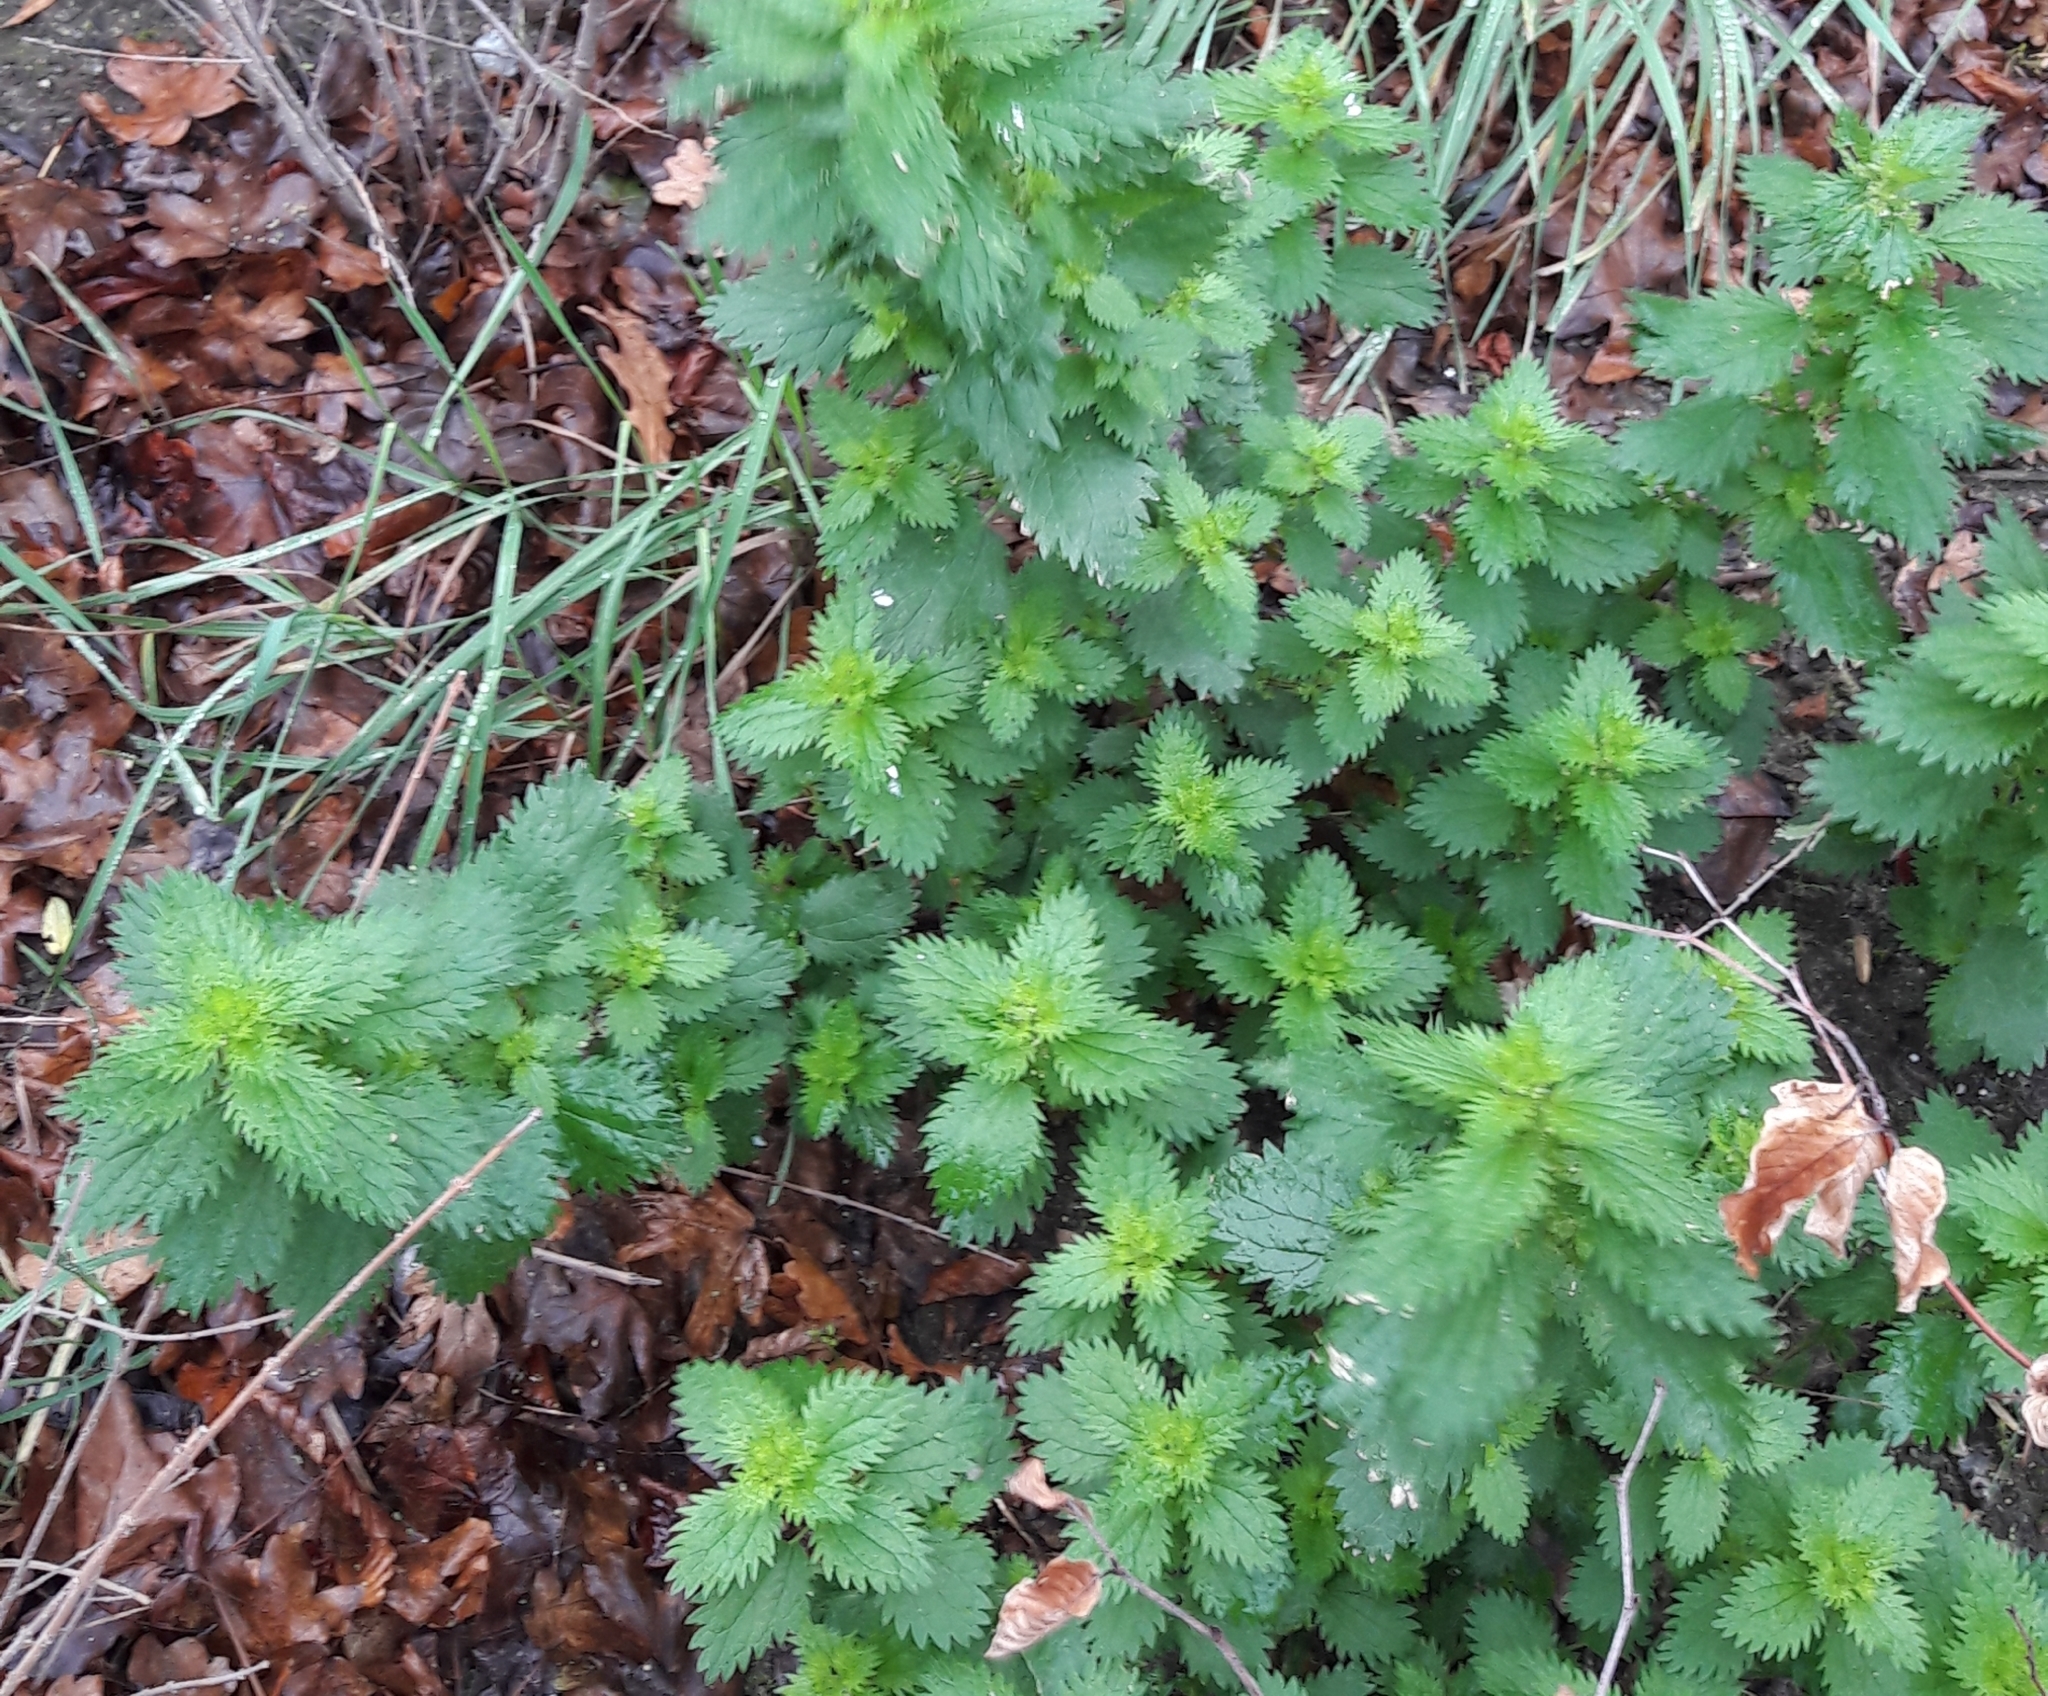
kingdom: Plantae
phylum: Tracheophyta
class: Magnoliopsida
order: Rosales
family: Urticaceae
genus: Urtica
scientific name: Urtica urens
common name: Dwarf nettle
